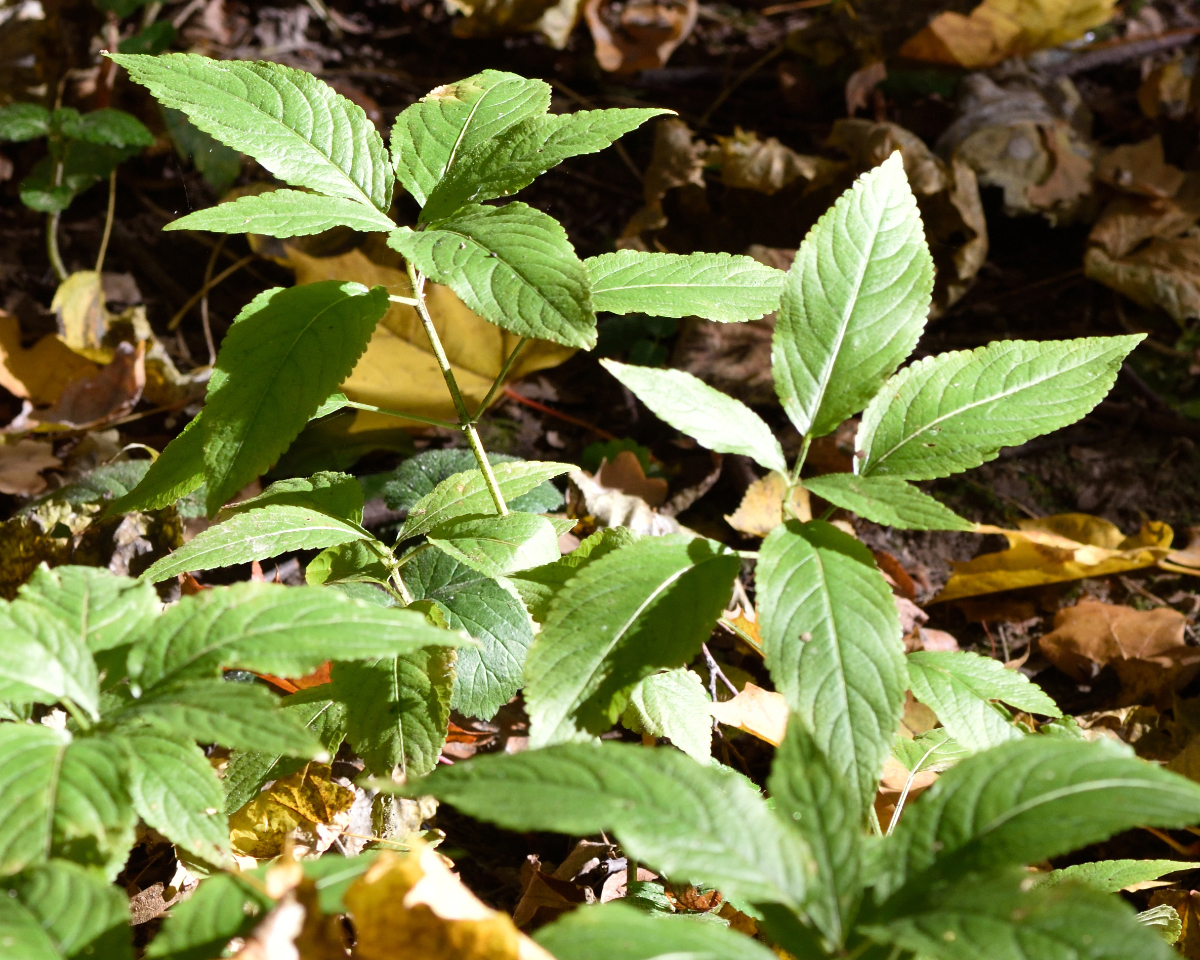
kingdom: Plantae
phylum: Tracheophyta
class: Magnoliopsida
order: Malpighiales
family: Euphorbiaceae
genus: Mercurialis
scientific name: Mercurialis perennis
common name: Dog mercury
